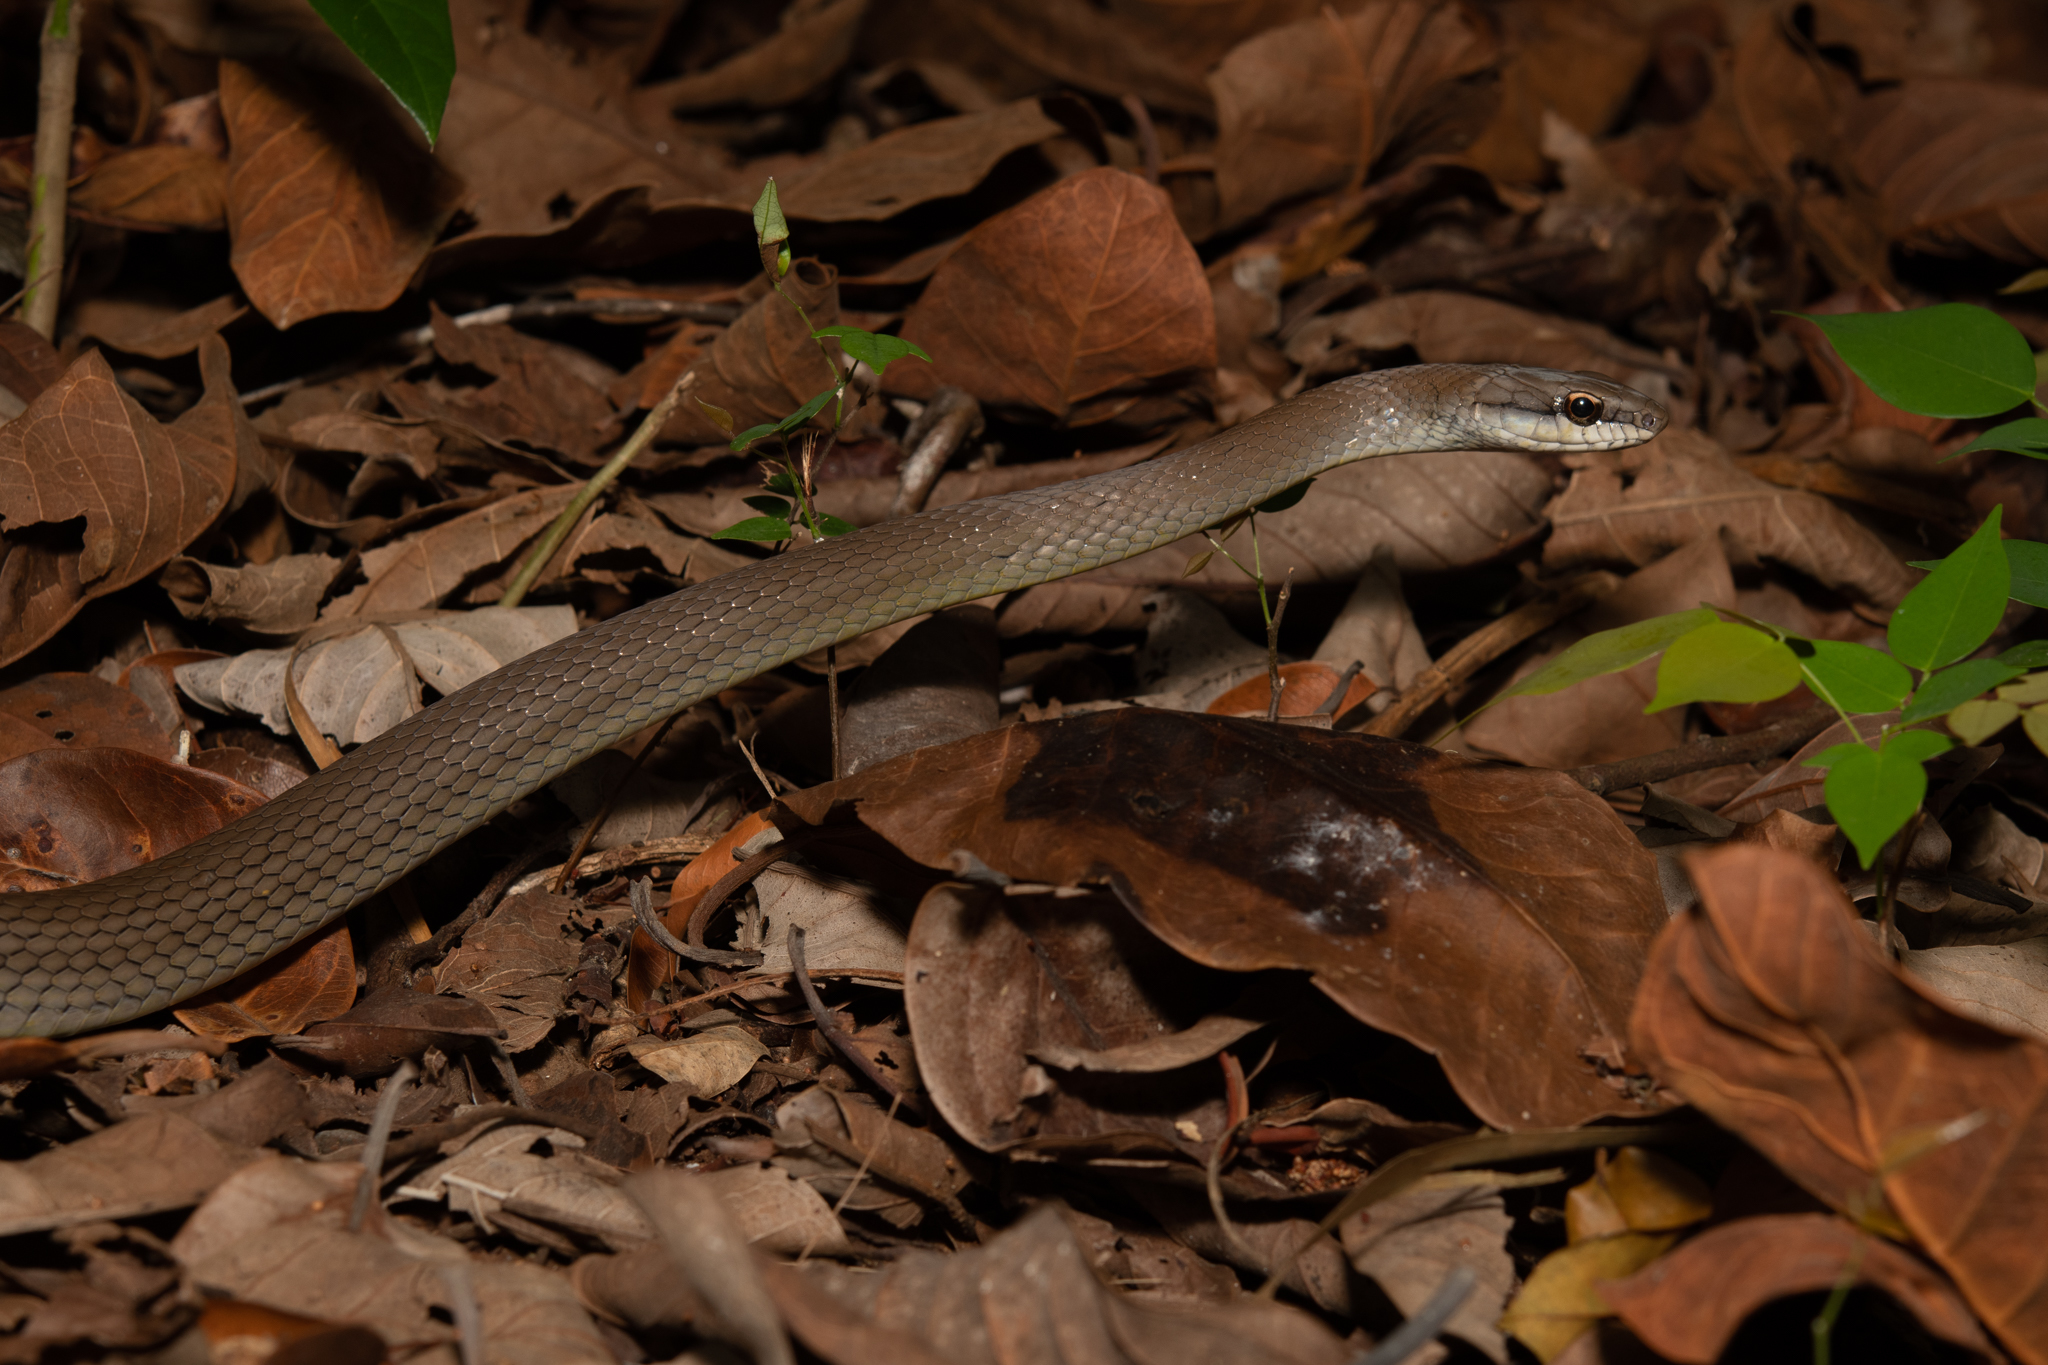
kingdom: Animalia
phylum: Chordata
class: Squamata
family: Colubridae
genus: Mastigodryas
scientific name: Mastigodryas melanolomus
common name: Salmon-bellied racer
